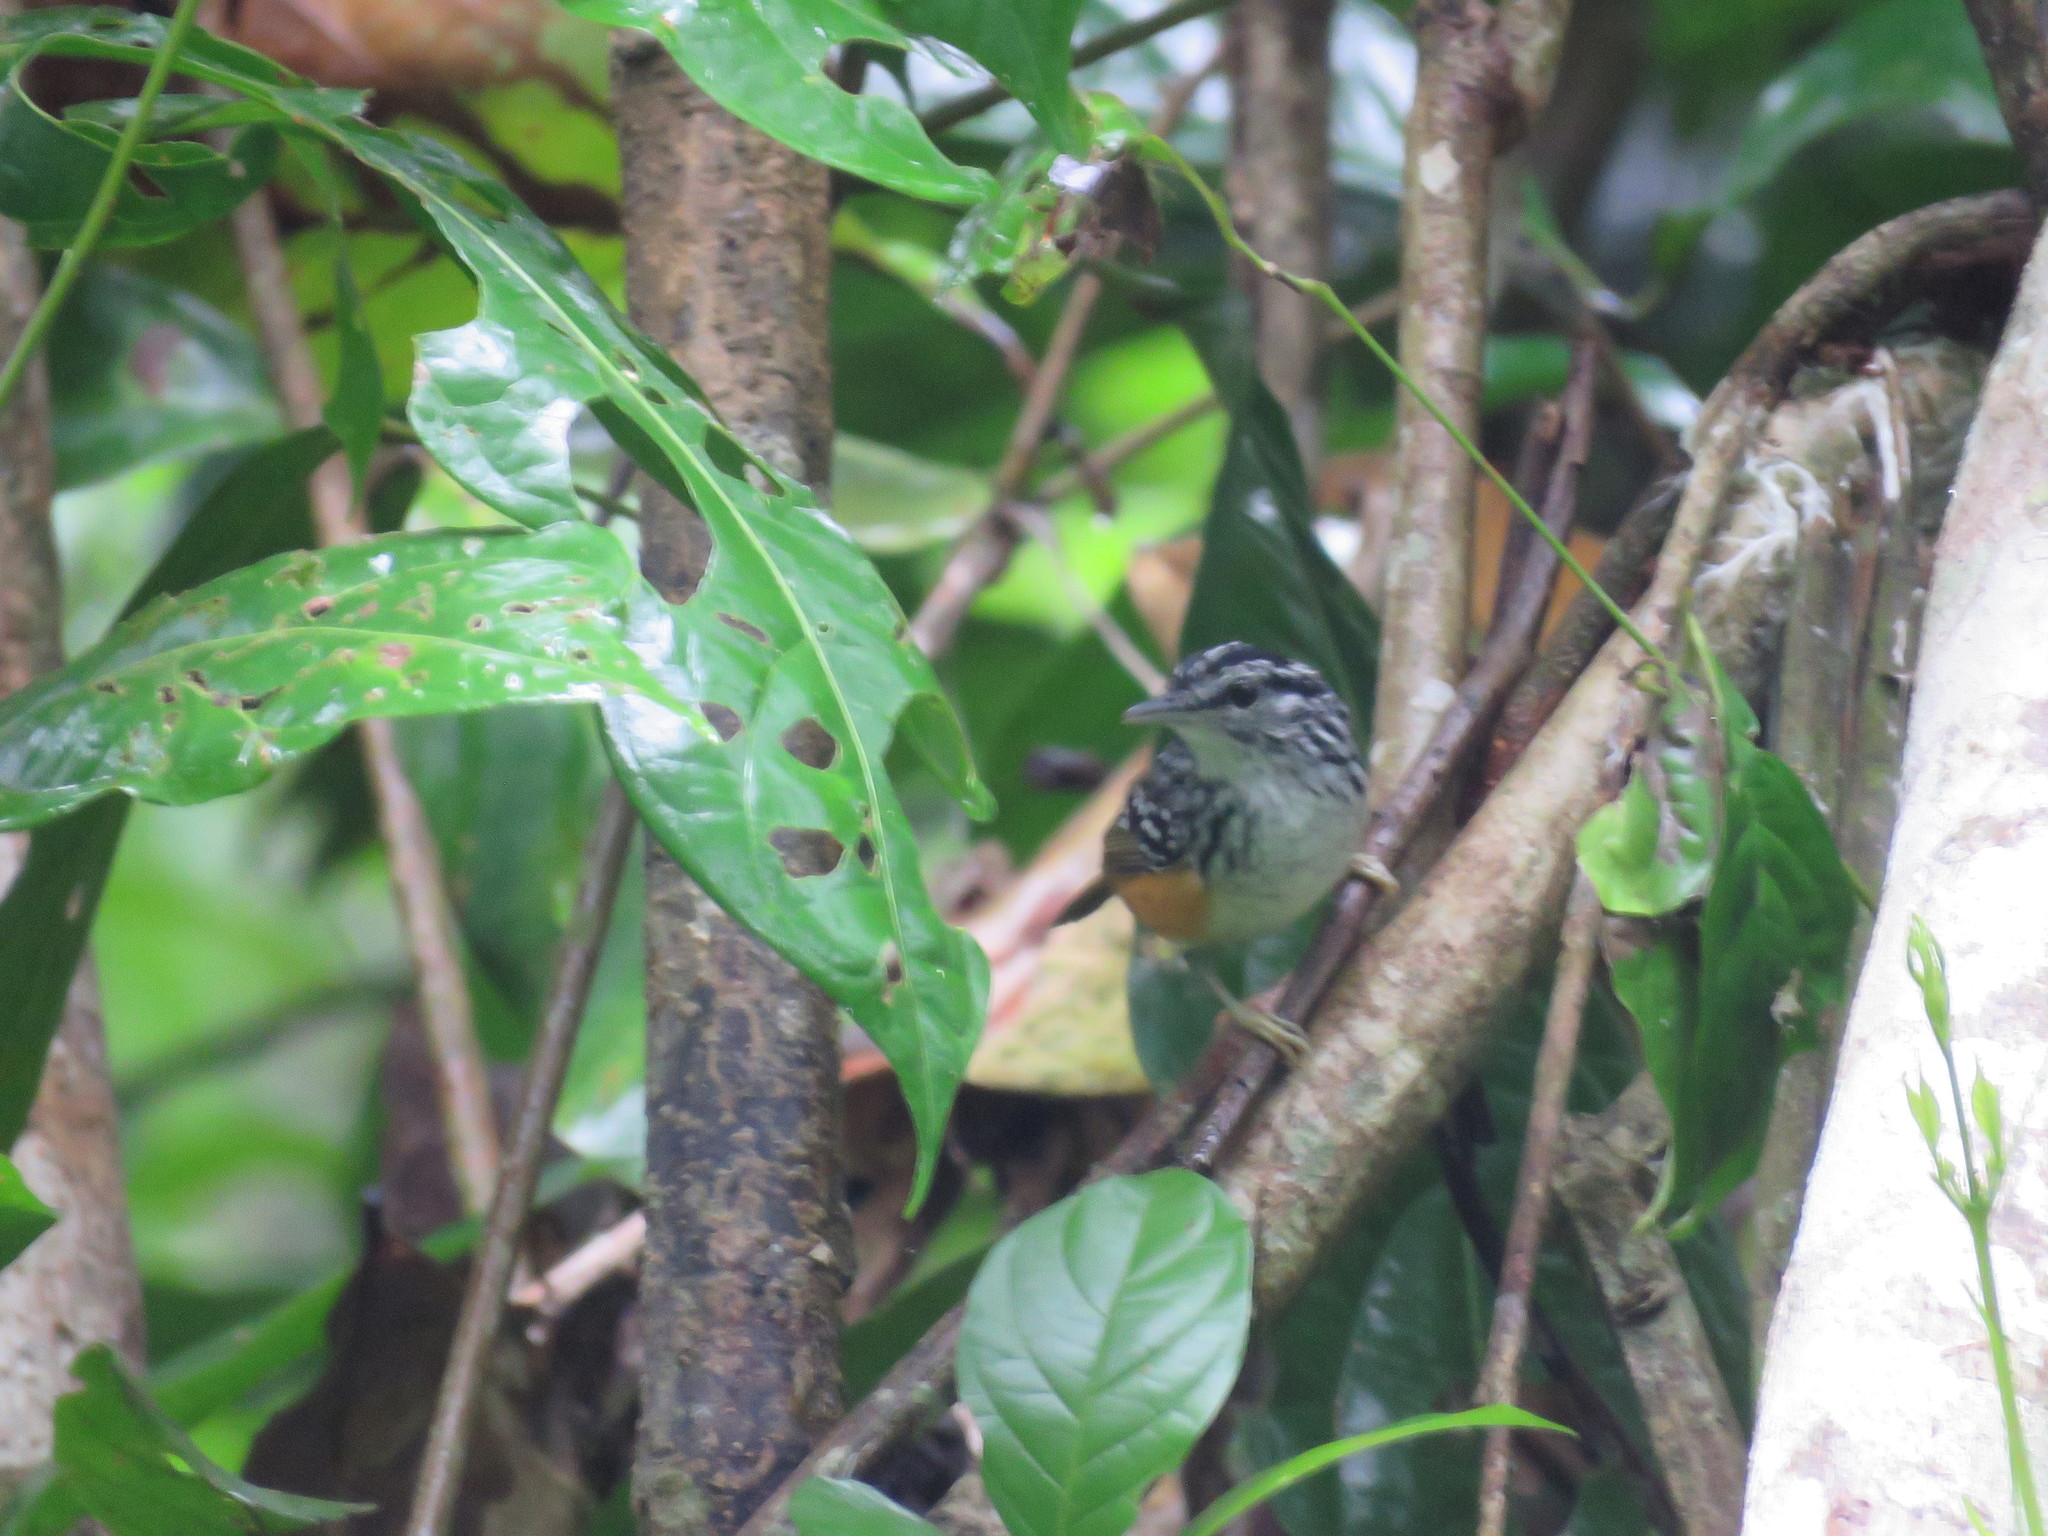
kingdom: Animalia
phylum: Chordata
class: Aves
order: Passeriformes
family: Thamnophilidae
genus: Hypocnemis
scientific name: Hypocnemis peruviana
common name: Peruvian warbling-antbird
